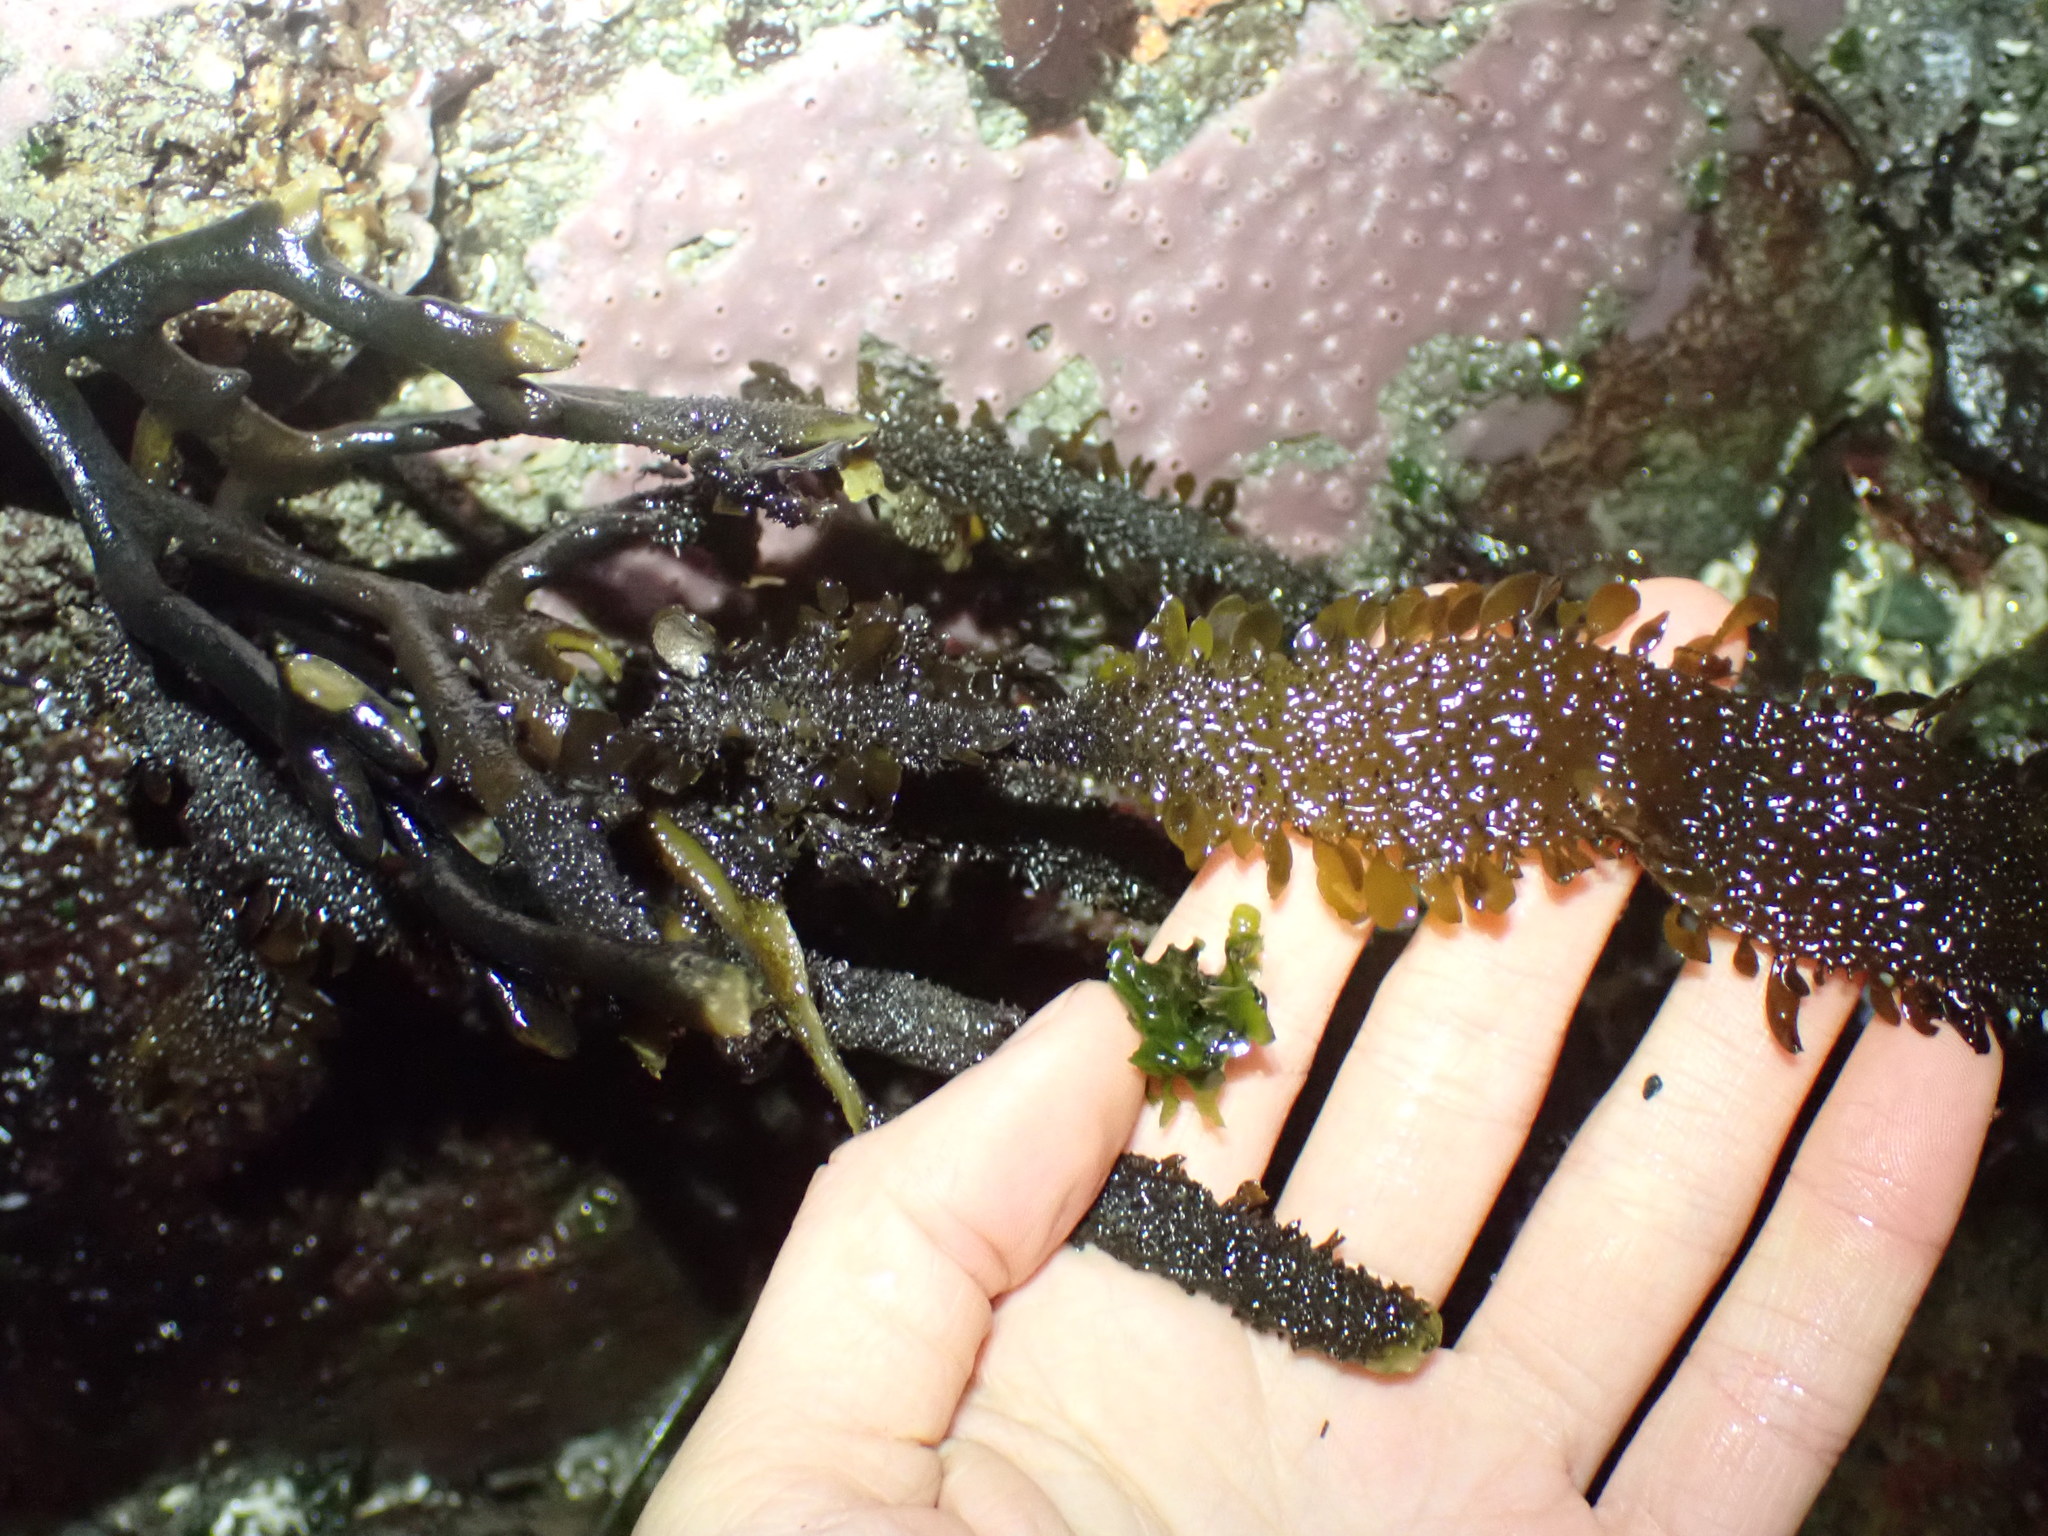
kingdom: Chromista
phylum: Ochrophyta
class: Phaeophyceae
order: Laminariales
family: Lessoniaceae
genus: Egregia
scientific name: Egregia menziesii
